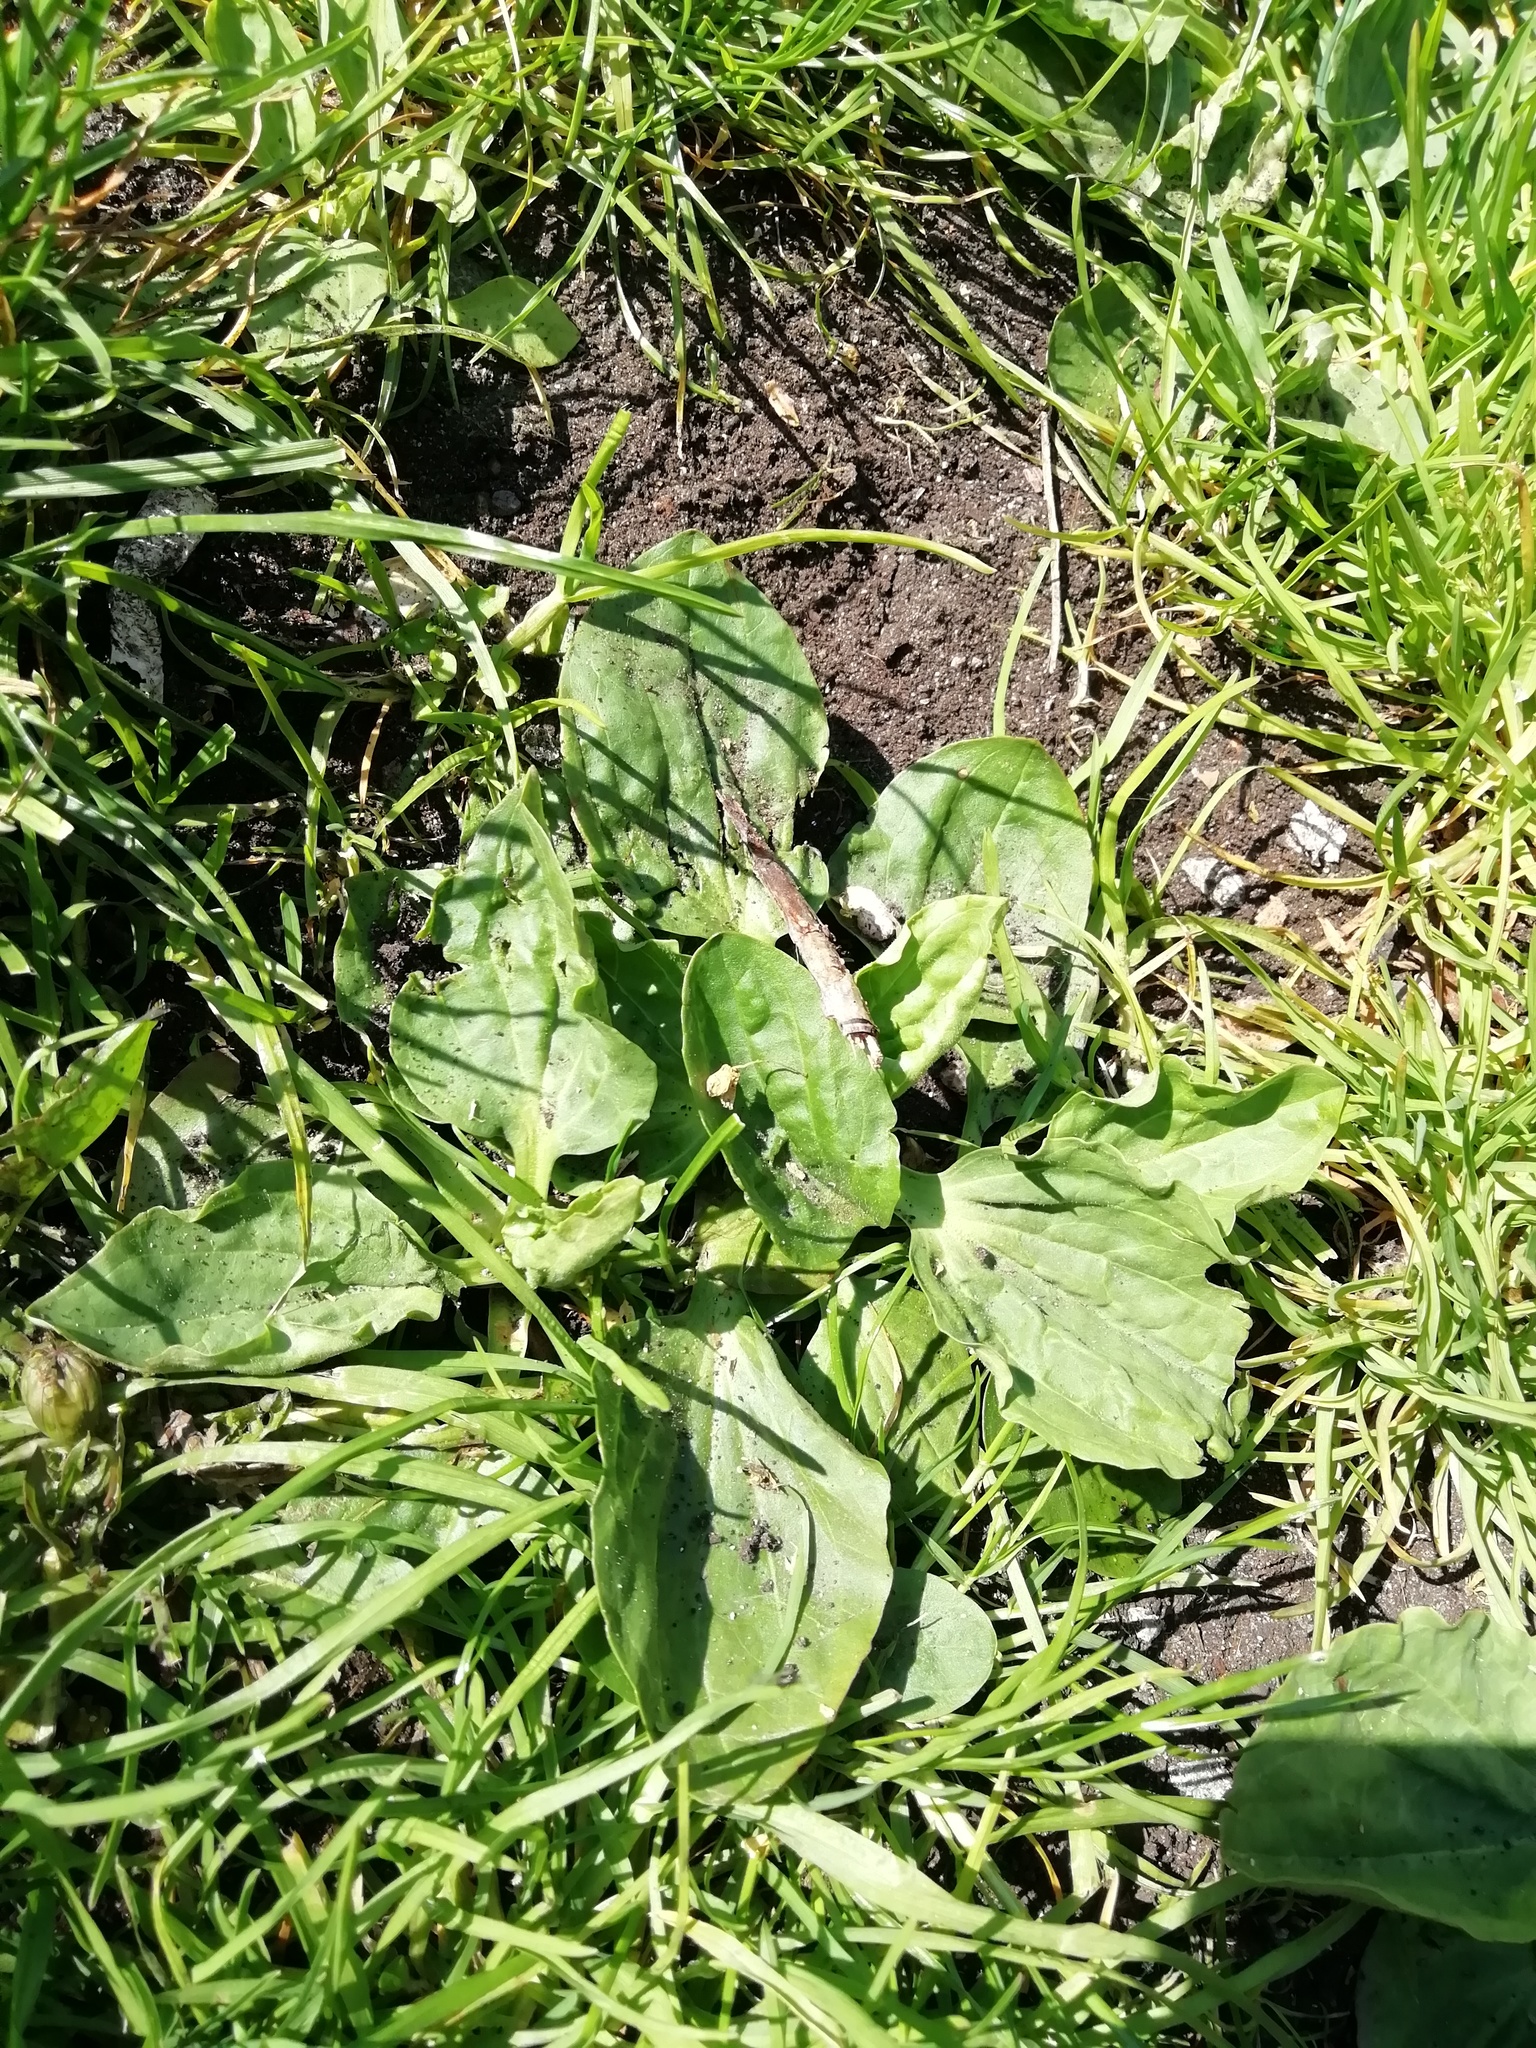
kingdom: Plantae
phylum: Tracheophyta
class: Magnoliopsida
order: Lamiales
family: Plantaginaceae
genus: Plantago
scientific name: Plantago major
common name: Common plantain
